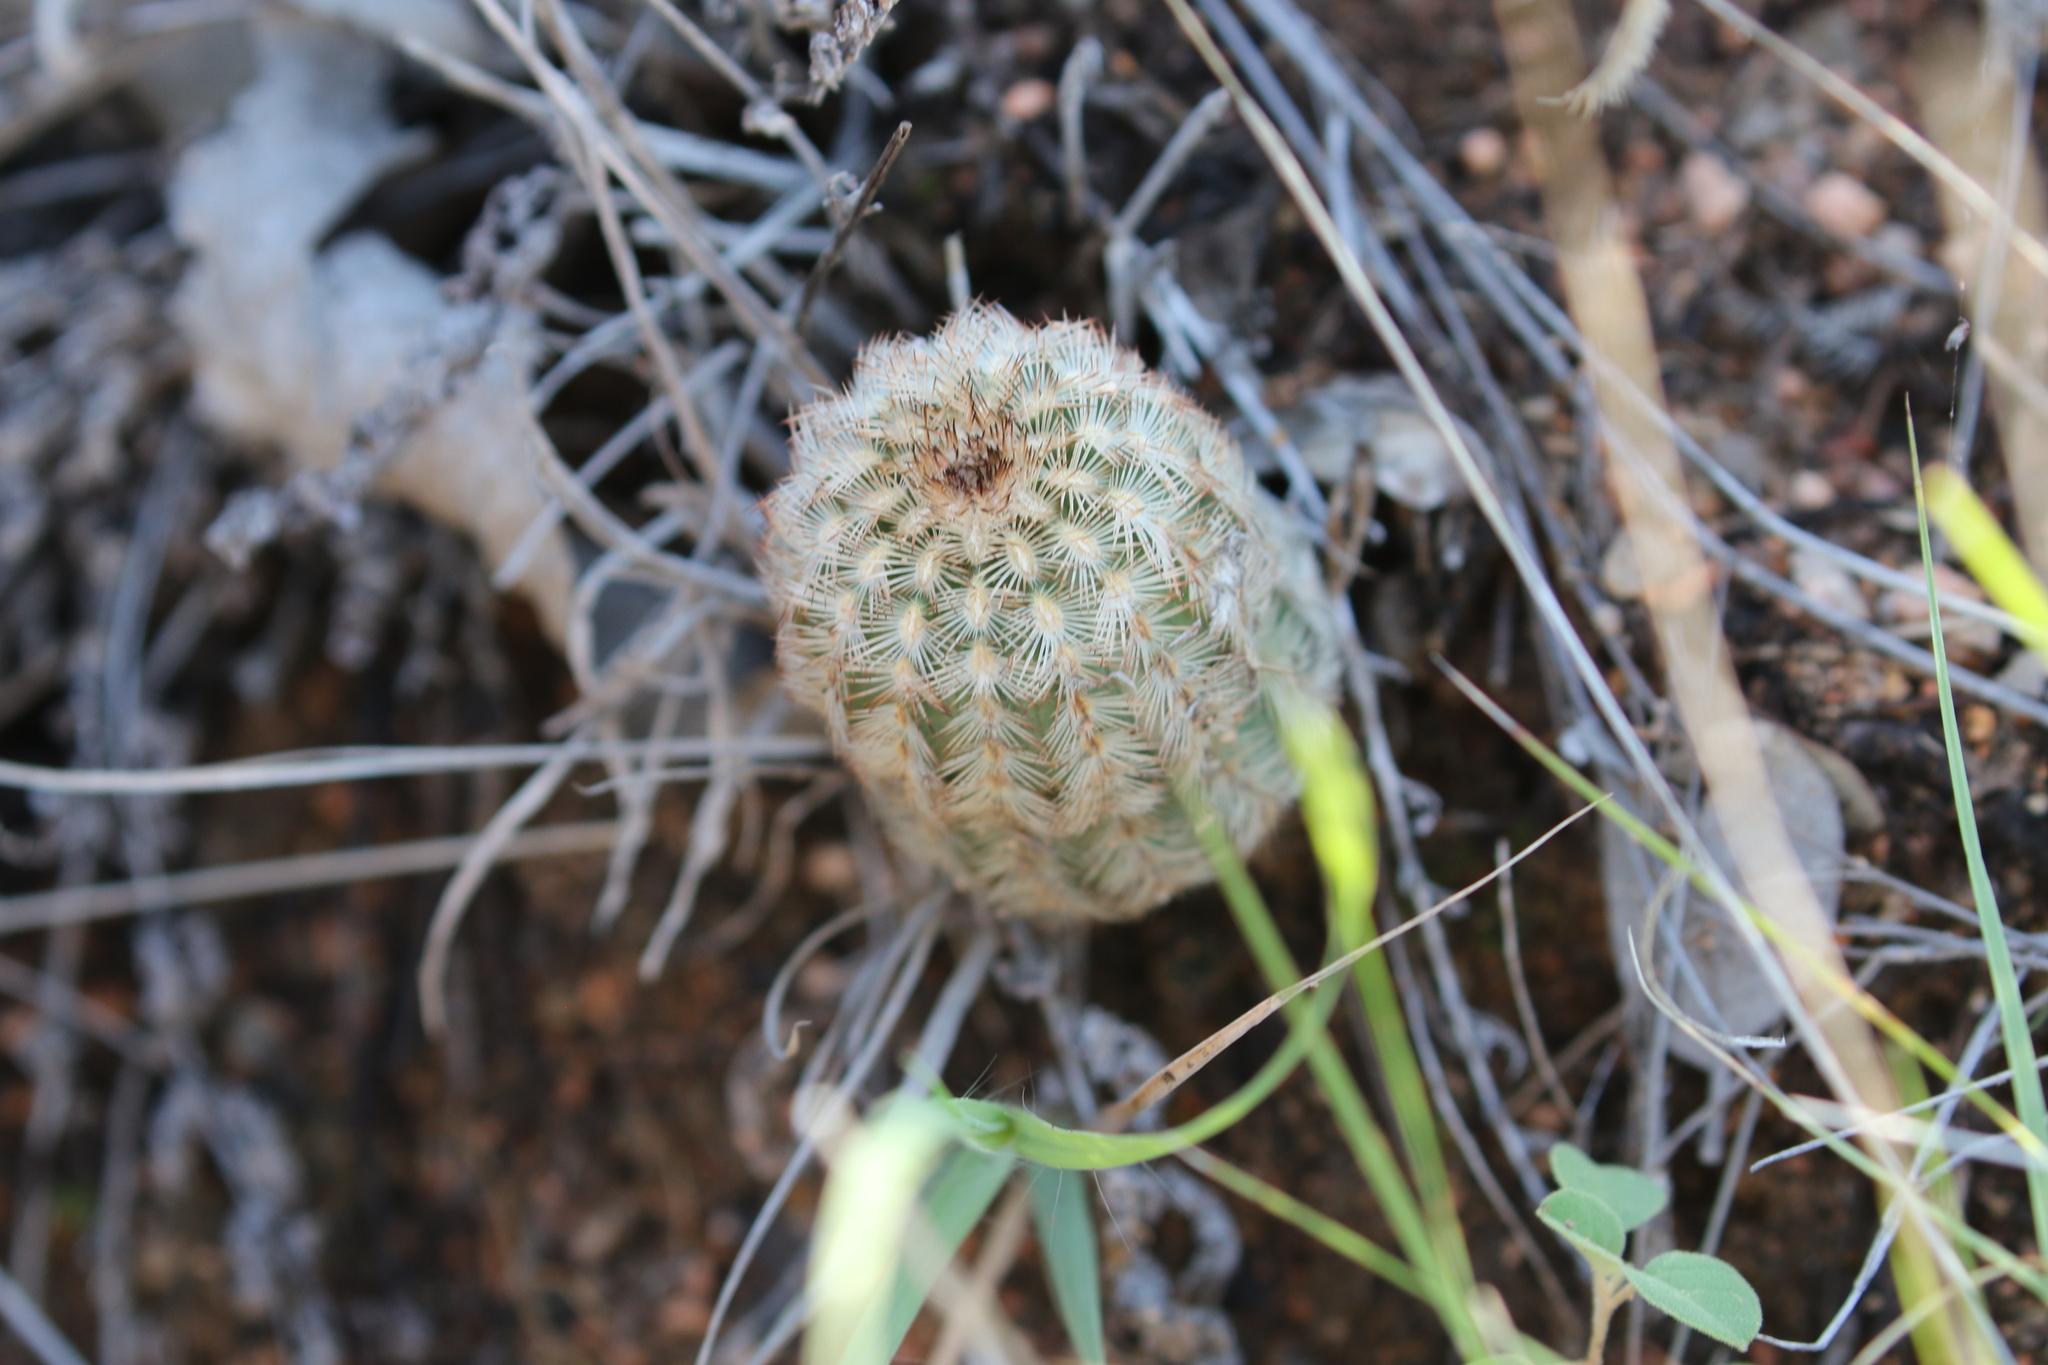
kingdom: Plantae
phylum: Tracheophyta
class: Magnoliopsida
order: Caryophyllales
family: Cactaceae
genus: Echinocereus
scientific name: Echinocereus reichenbachii
